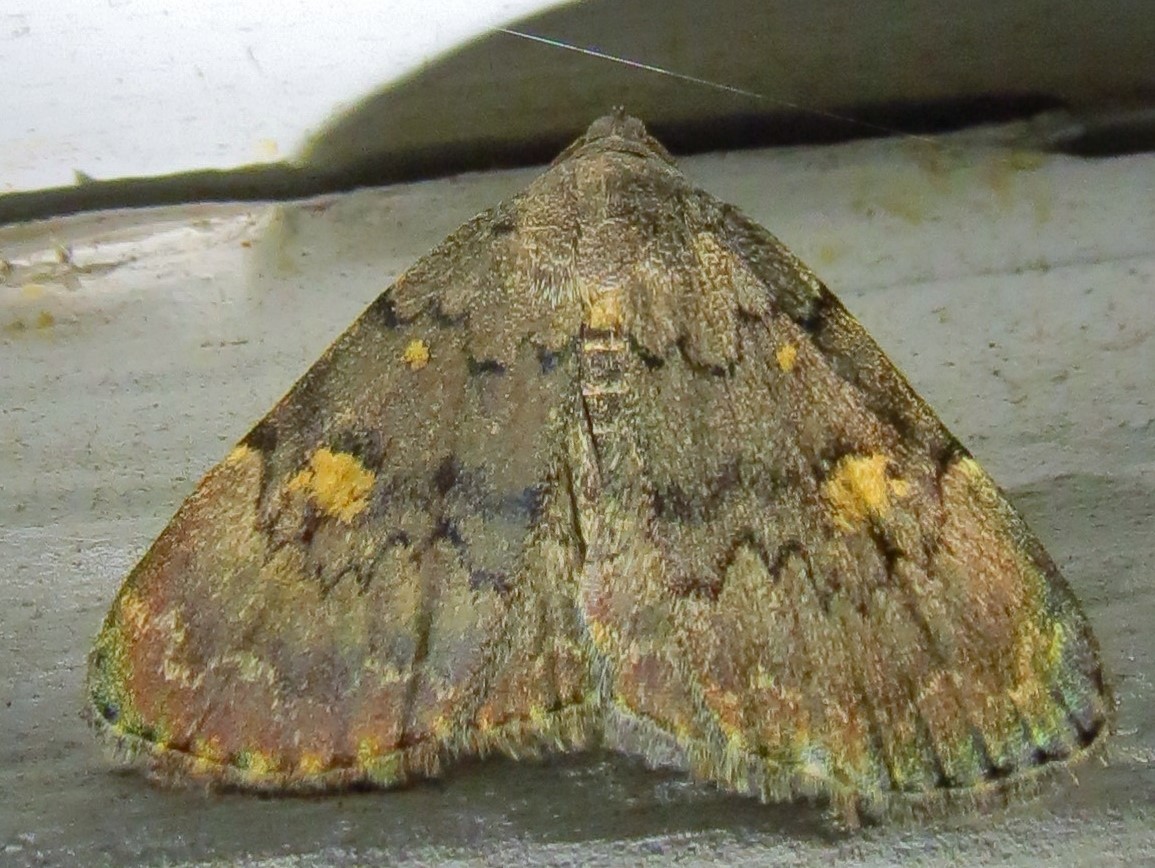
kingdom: Animalia
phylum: Arthropoda
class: Insecta
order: Lepidoptera
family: Erebidae
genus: Idia
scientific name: Idia aemula
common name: Common idia moth
